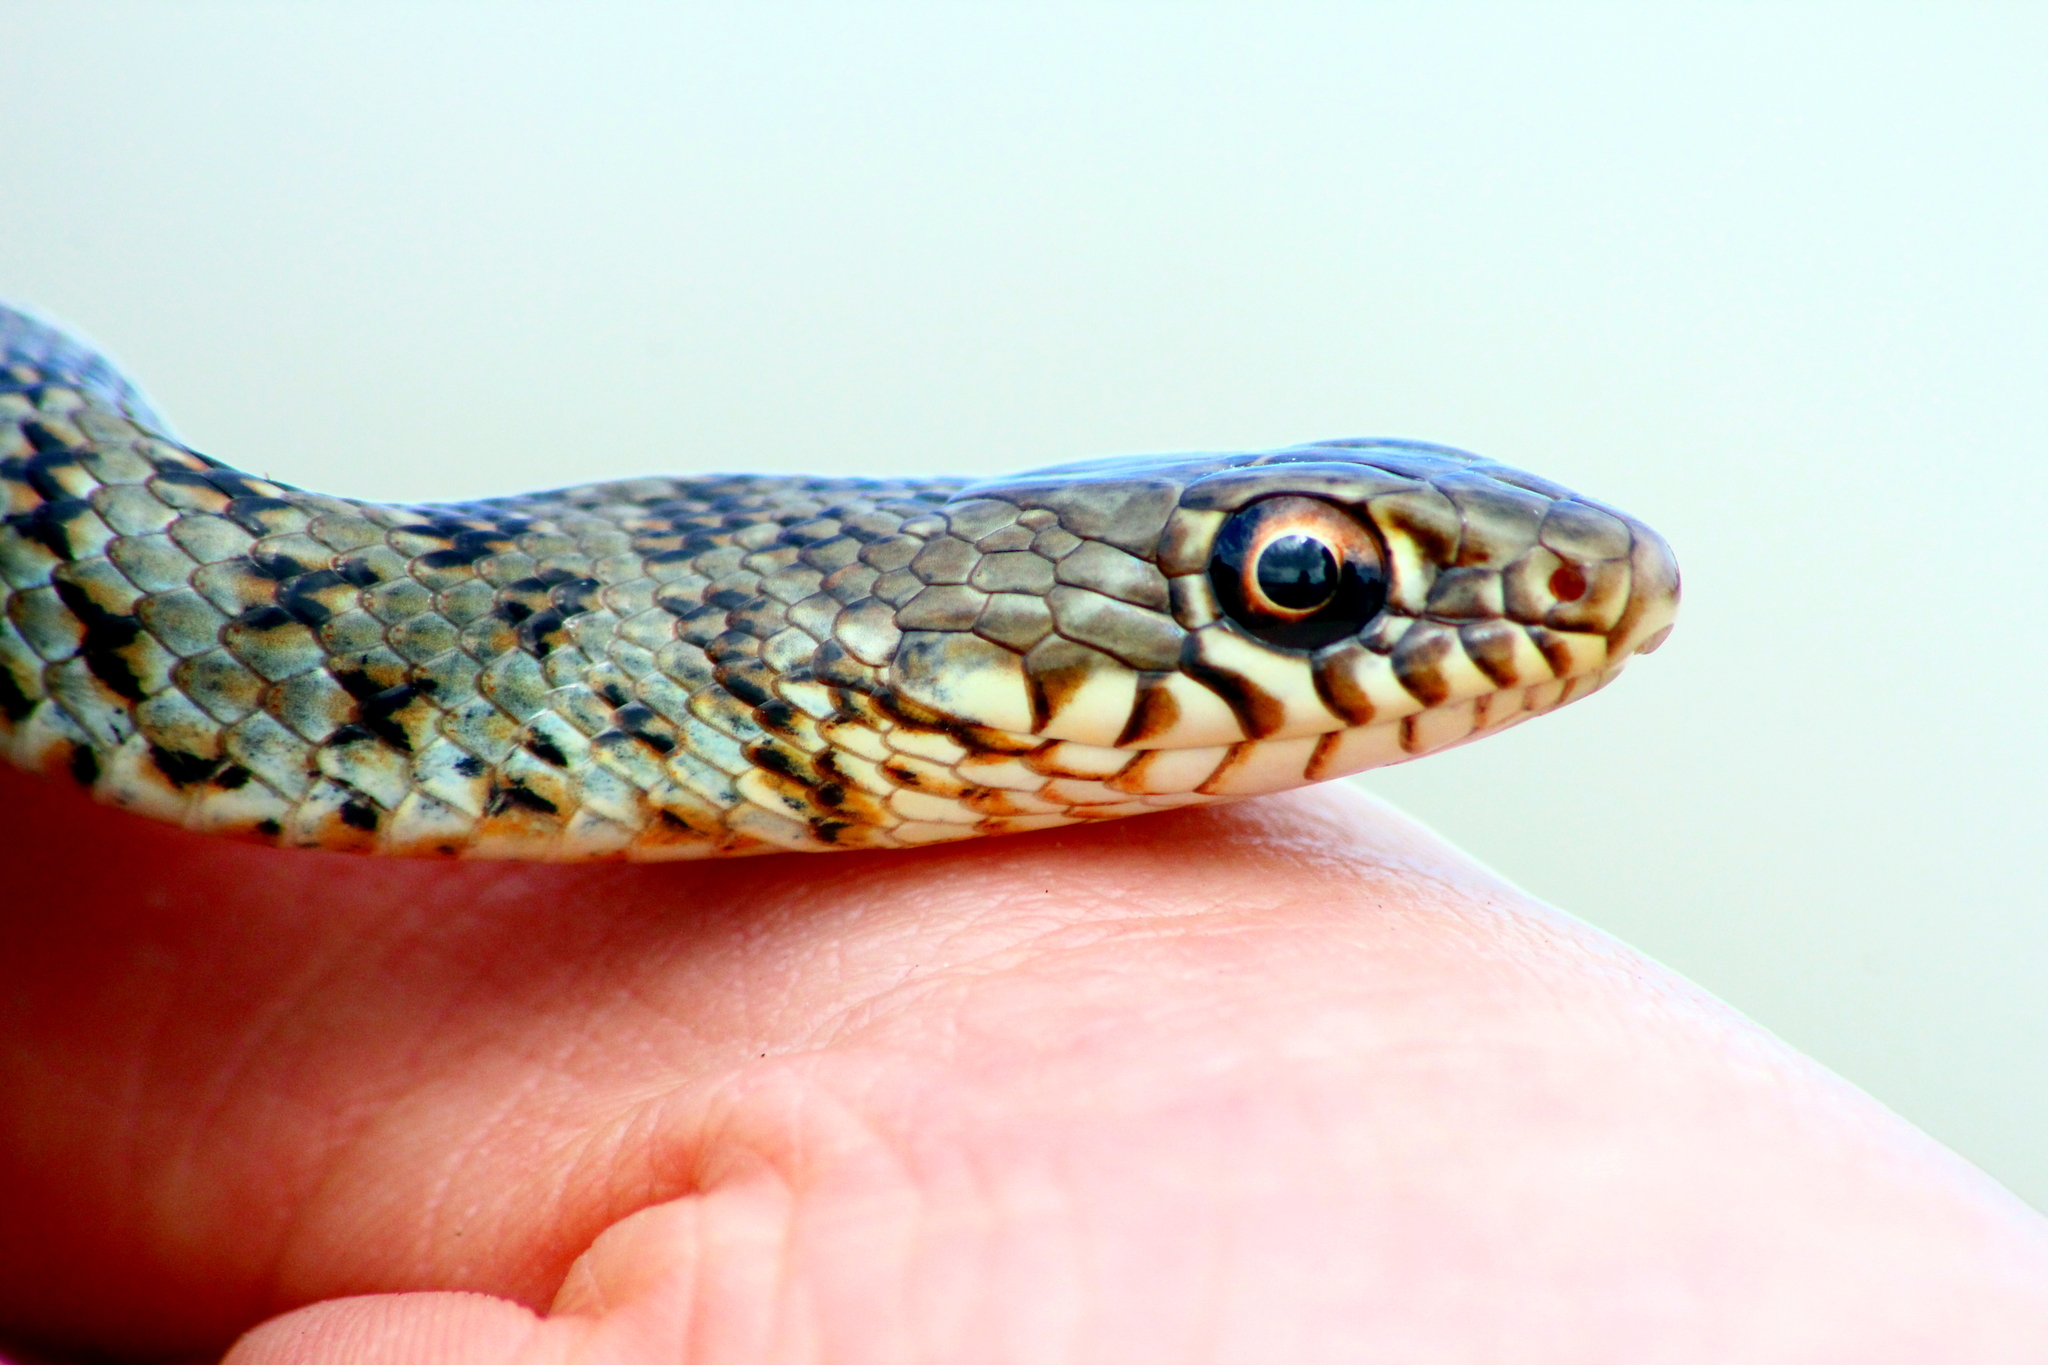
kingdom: Animalia
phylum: Chordata
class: Squamata
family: Colubridae
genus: Dolichophis
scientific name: Dolichophis jugularis
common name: Large whip snake
